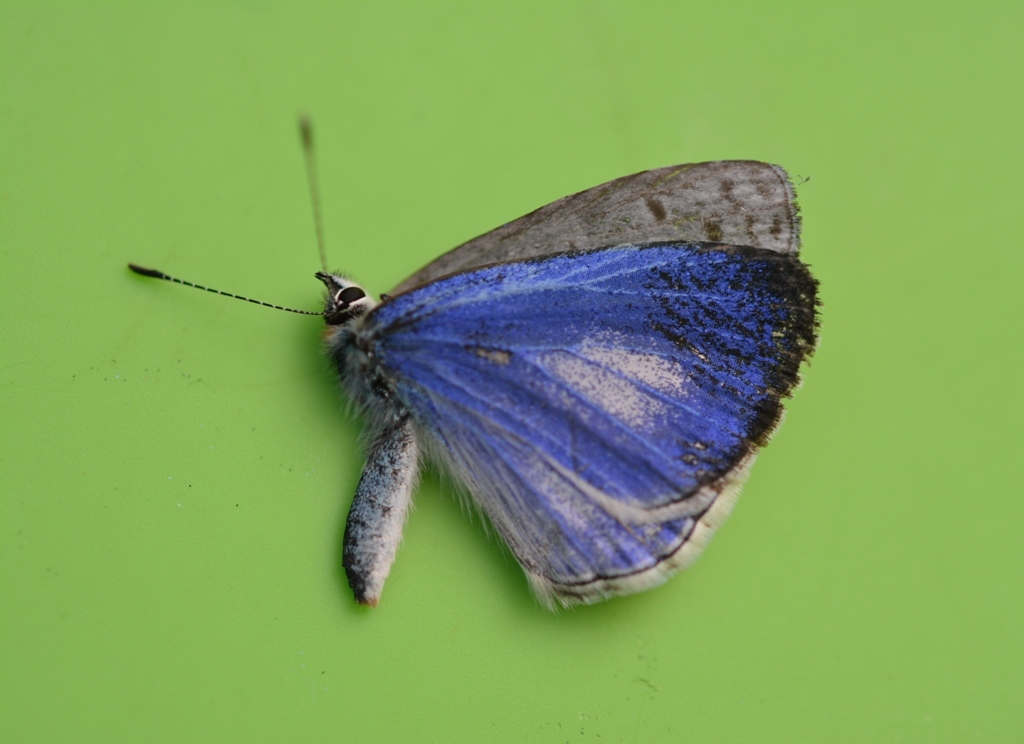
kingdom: Animalia
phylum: Arthropoda
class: Insecta
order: Lepidoptera
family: Lycaenidae
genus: Celastrina
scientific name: Celastrina ladon
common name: Spring azure
